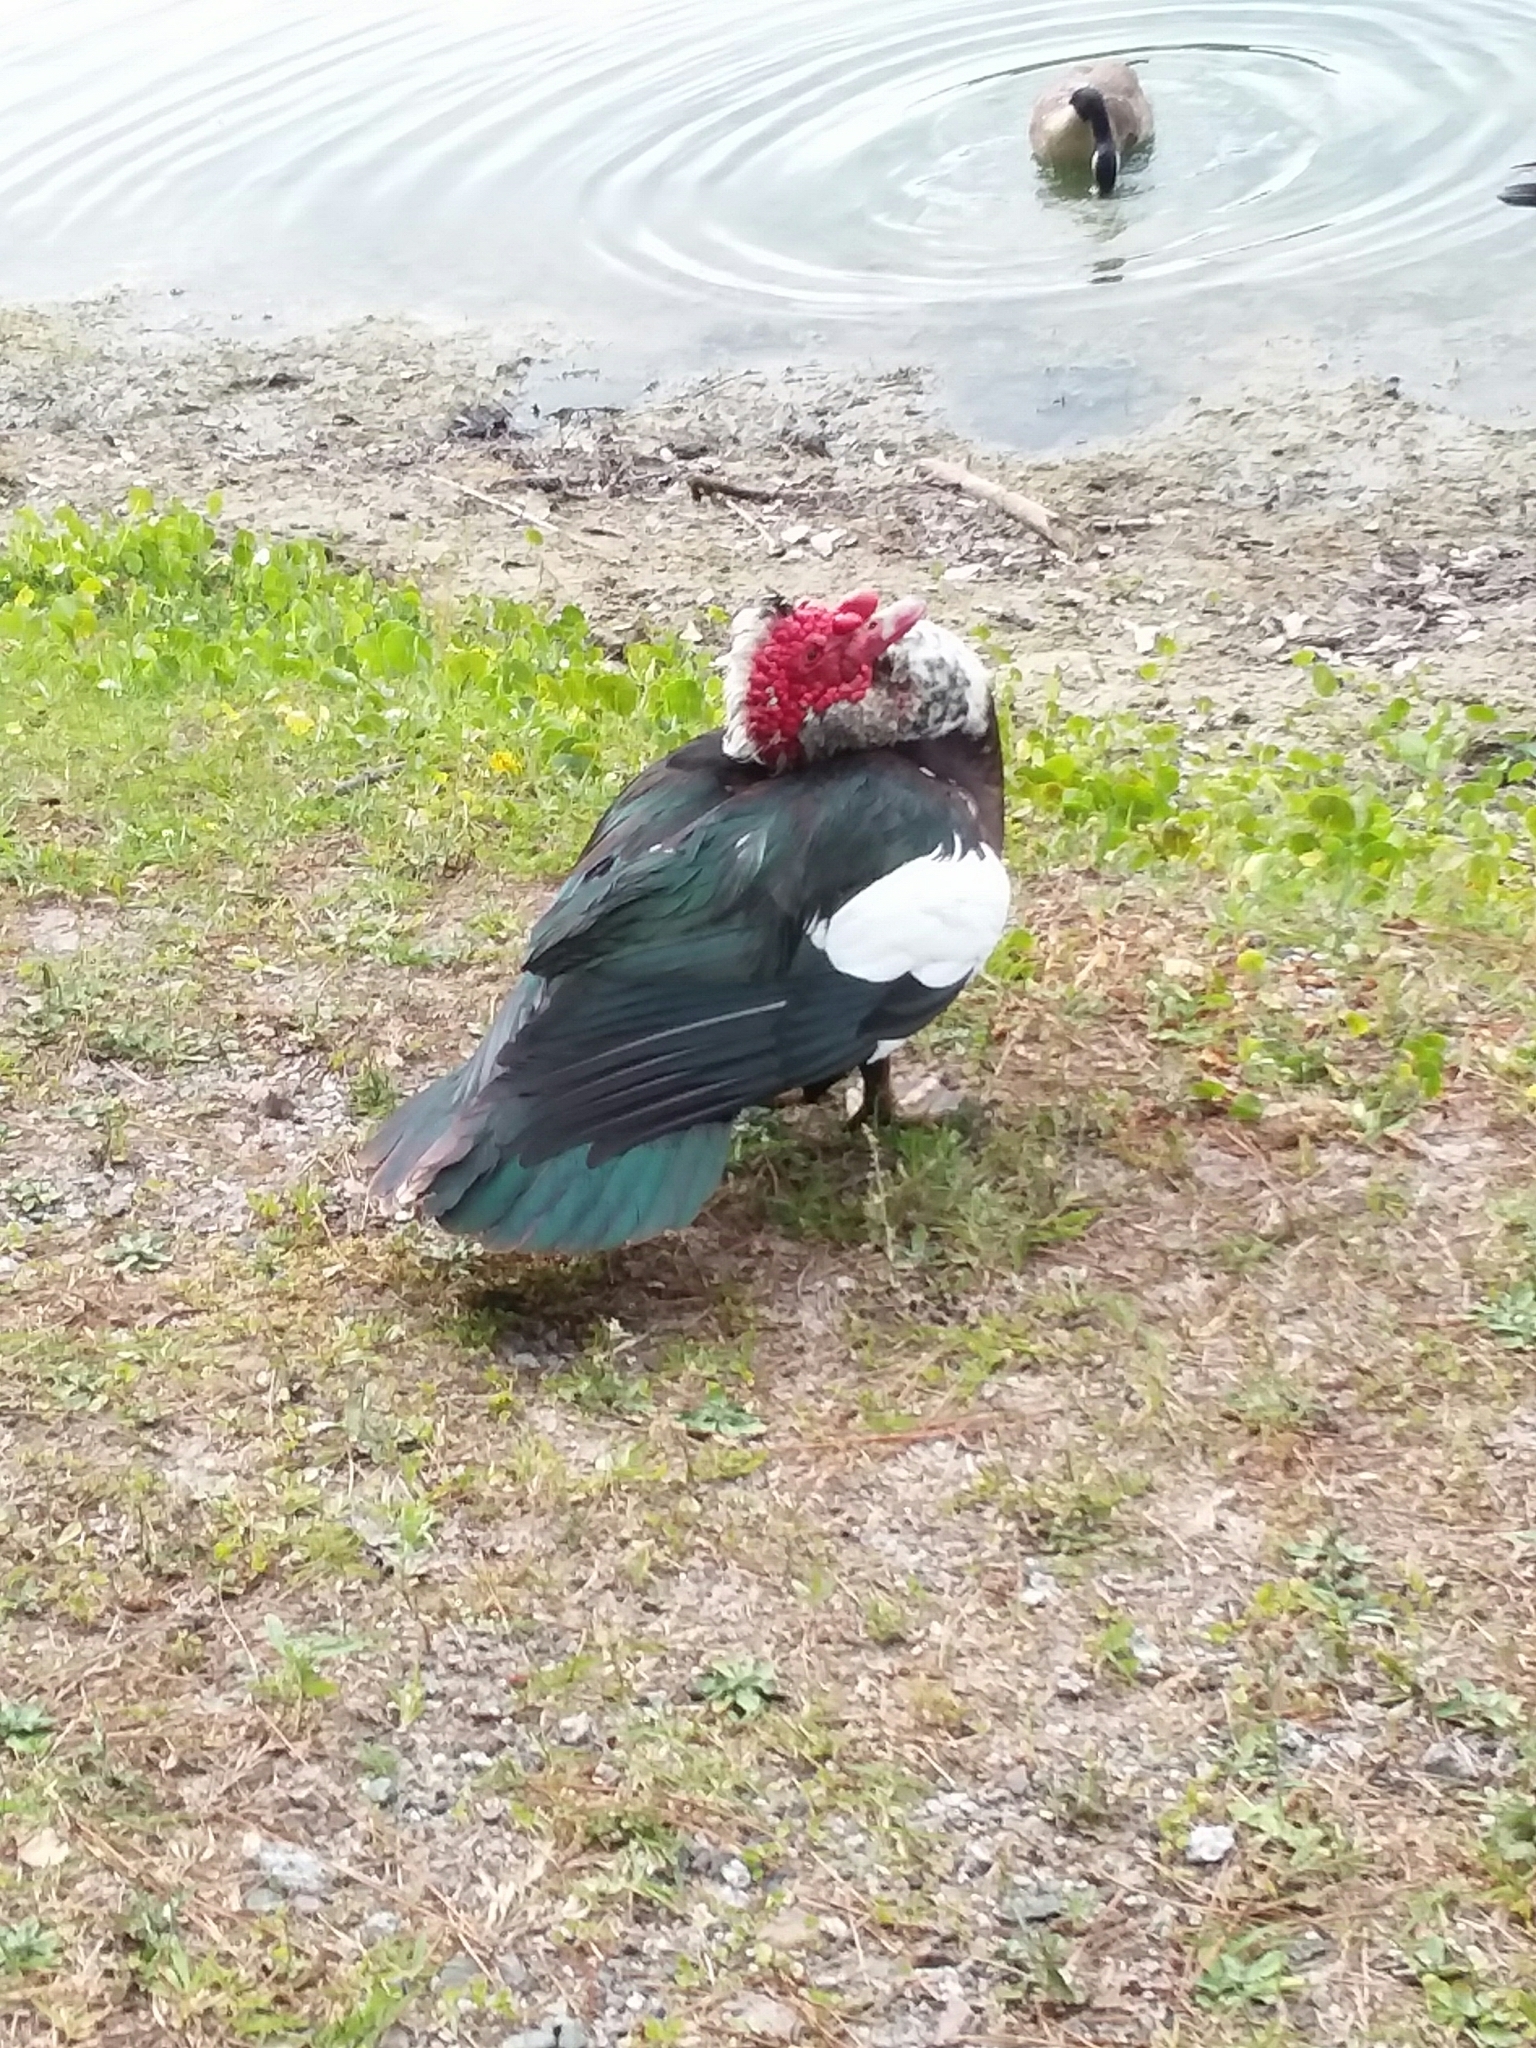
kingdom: Animalia
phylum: Chordata
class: Aves
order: Anseriformes
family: Anatidae
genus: Cairina
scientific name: Cairina moschata
